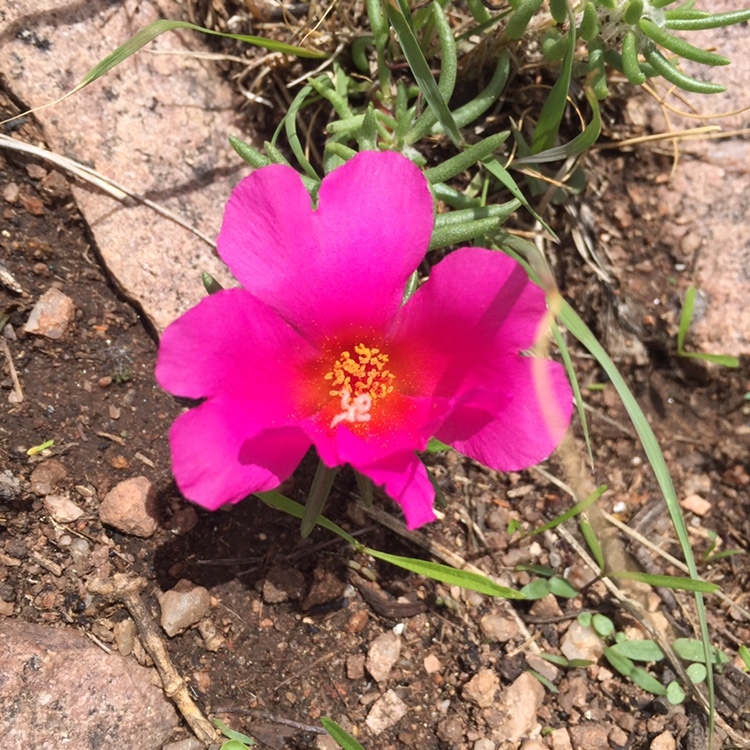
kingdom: Plantae
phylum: Tracheophyta
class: Magnoliopsida
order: Caryophyllales
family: Portulacaceae
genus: Portulaca
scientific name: Portulaca grandiflora
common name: Moss-rose
